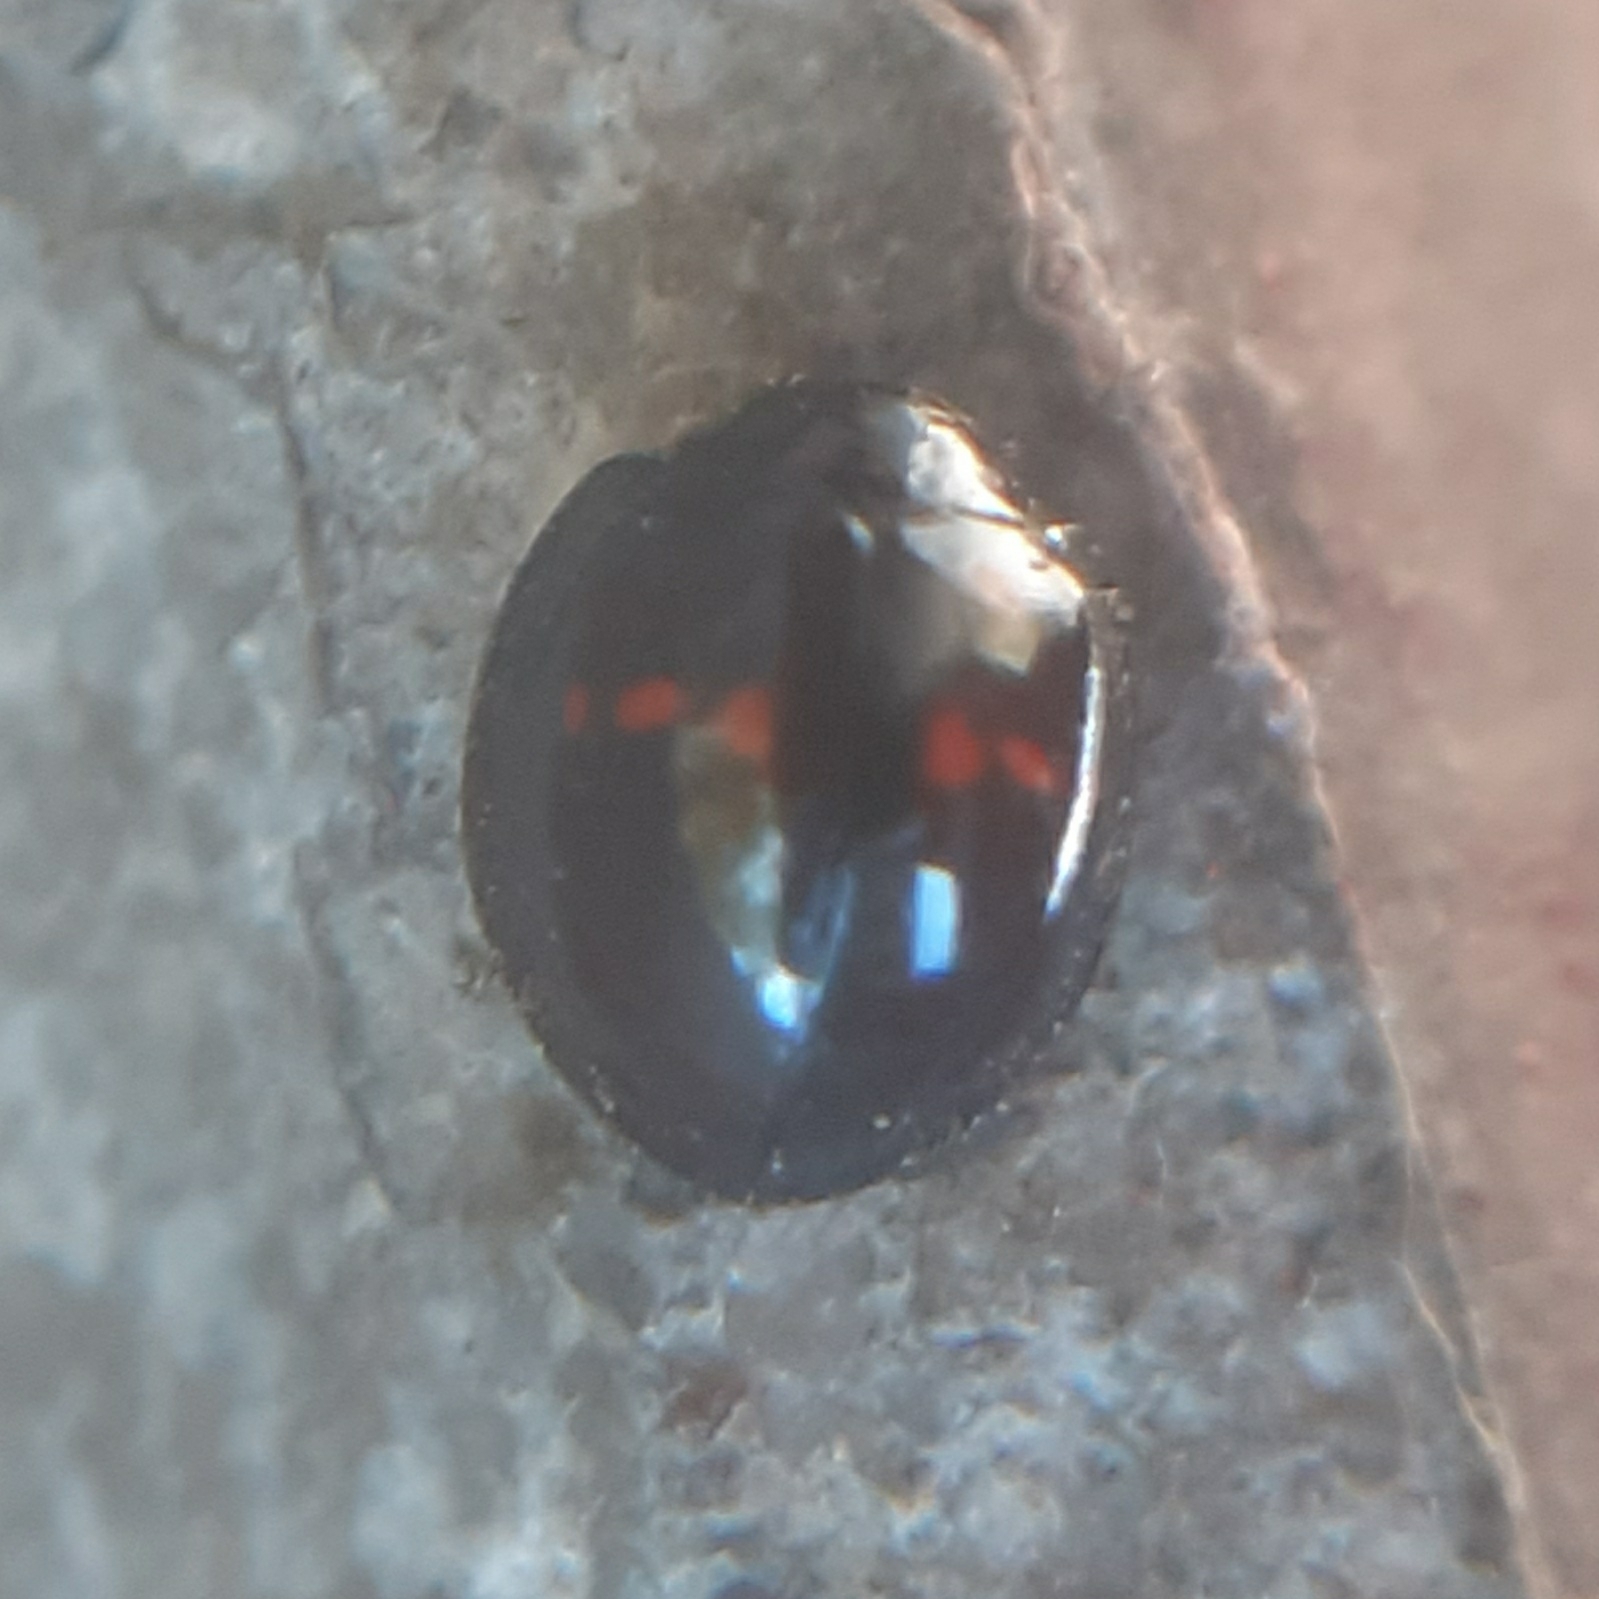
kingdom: Animalia
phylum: Arthropoda
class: Insecta
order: Coleoptera
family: Coccinellidae
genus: Chilocorus
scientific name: Chilocorus bipustulatus
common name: Heather ladybird
